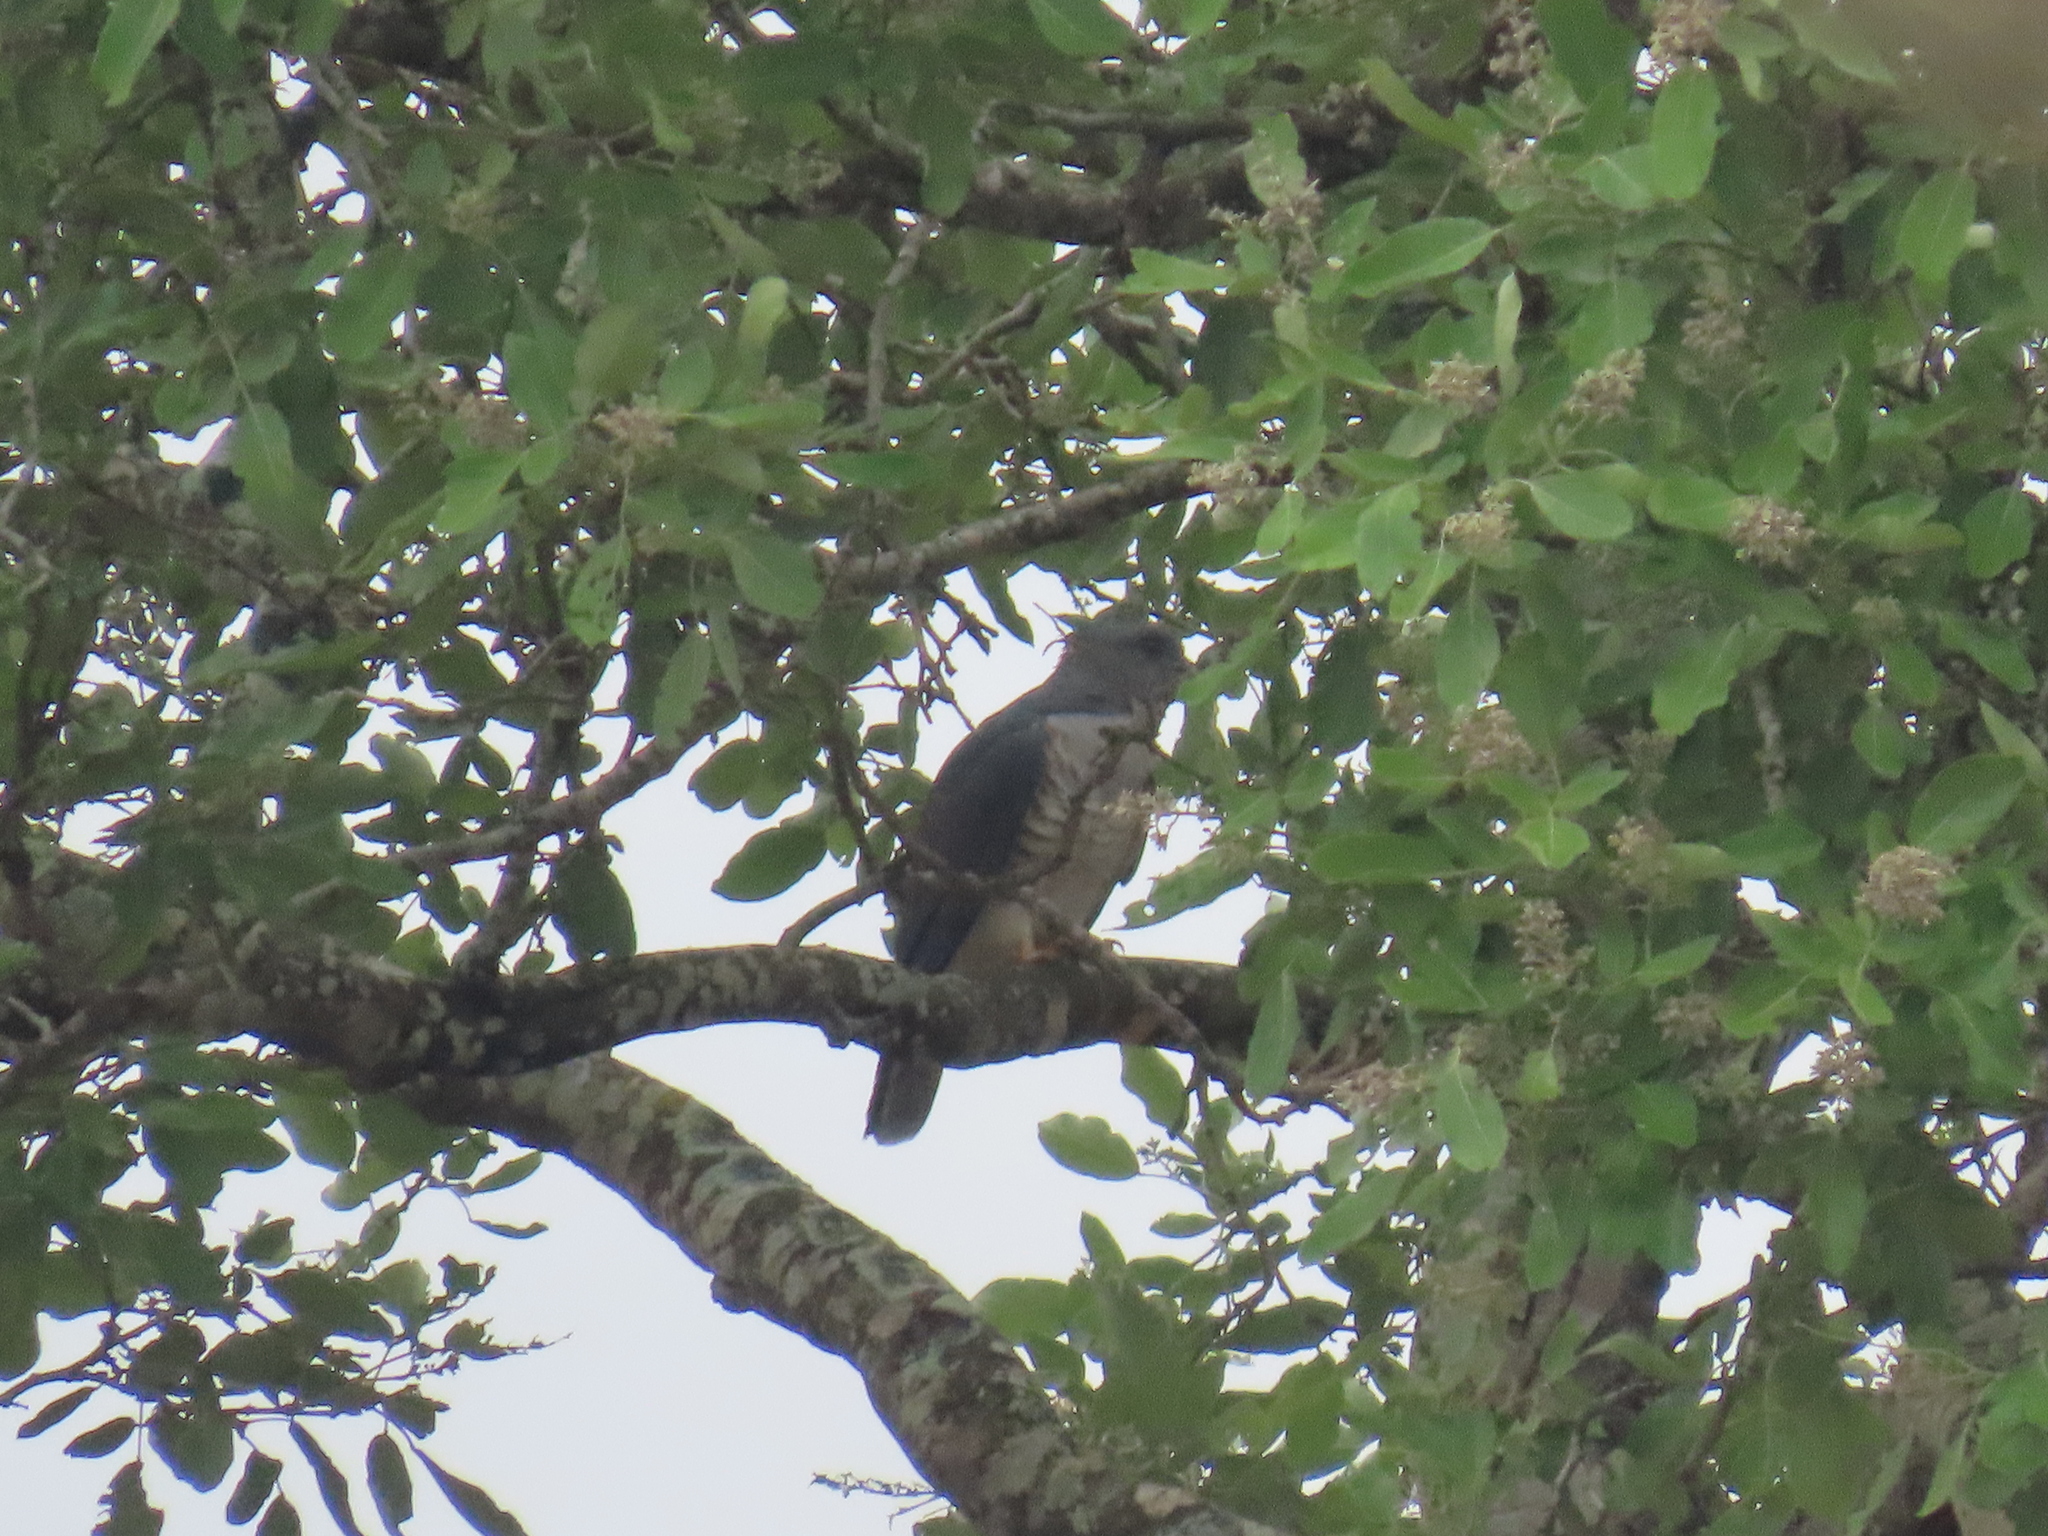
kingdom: Animalia
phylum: Chordata
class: Aves
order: Accipitriformes
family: Accipitridae
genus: Aviceda
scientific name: Aviceda cuculoides
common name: African cuckoo-hawk
